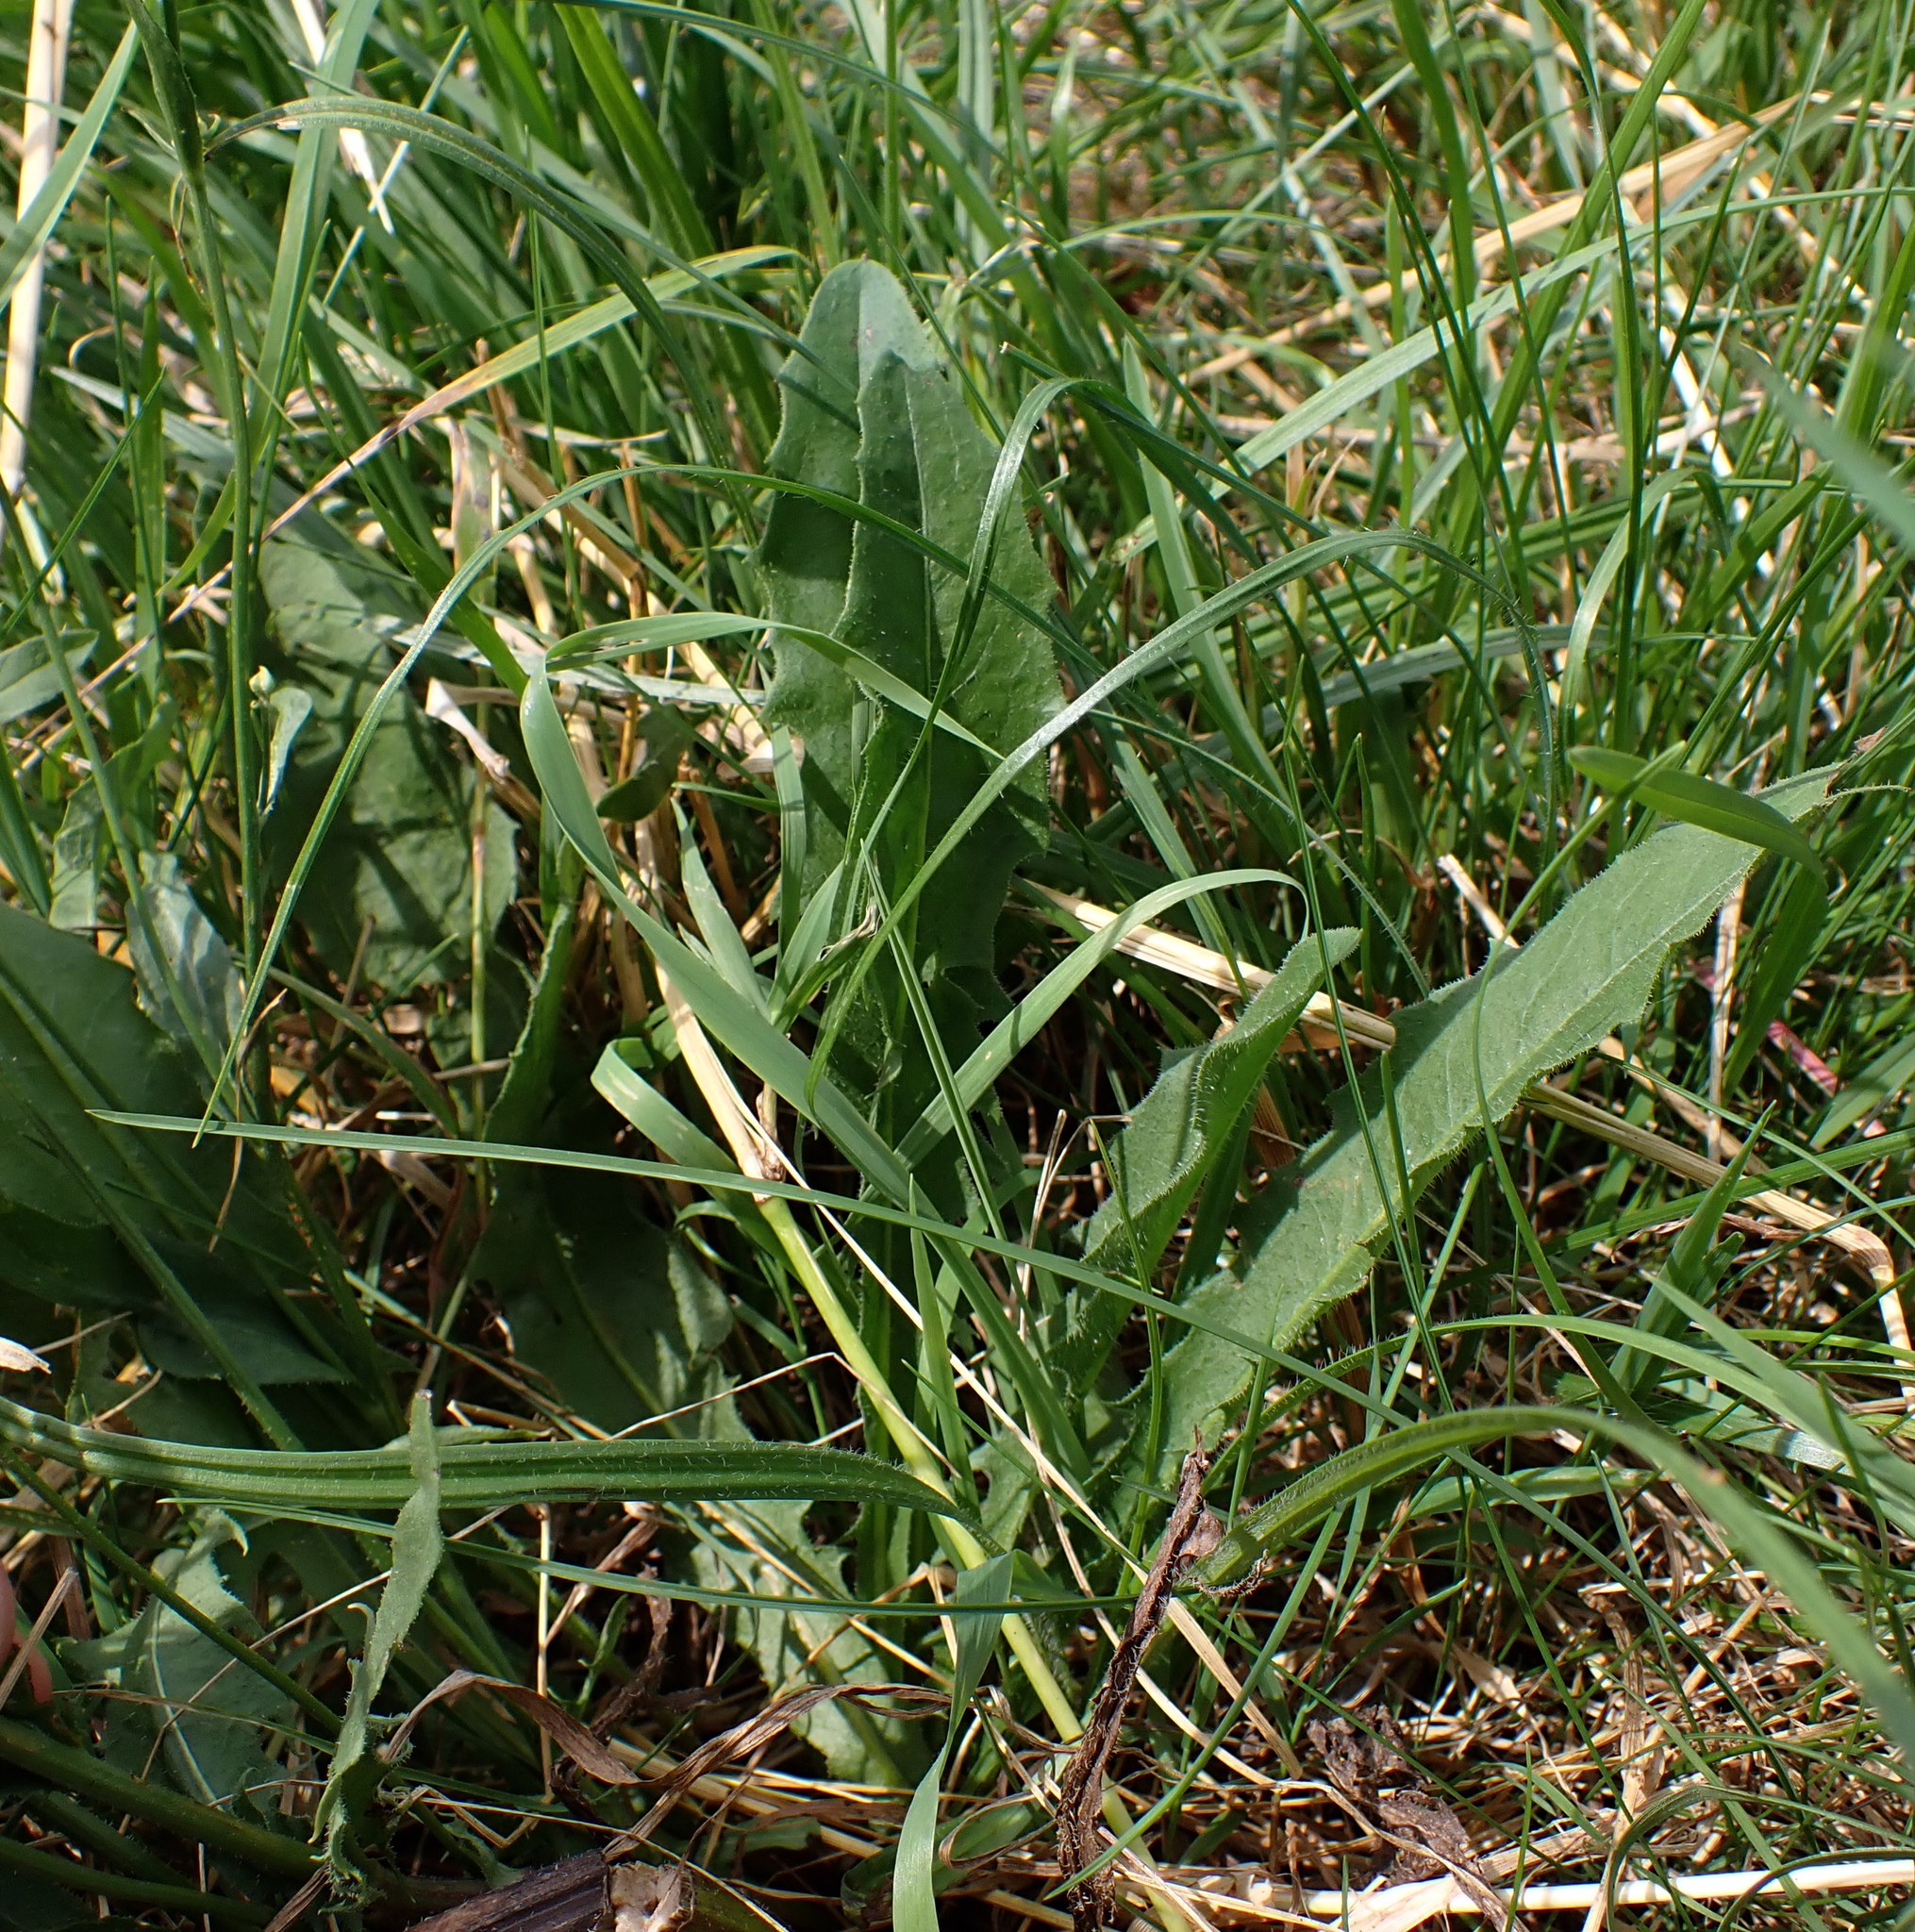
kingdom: Plantae
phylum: Tracheophyta
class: Magnoliopsida
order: Asterales
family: Asteraceae
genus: Picris
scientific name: Picris hieracioides
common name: Hawkweed oxtongue
